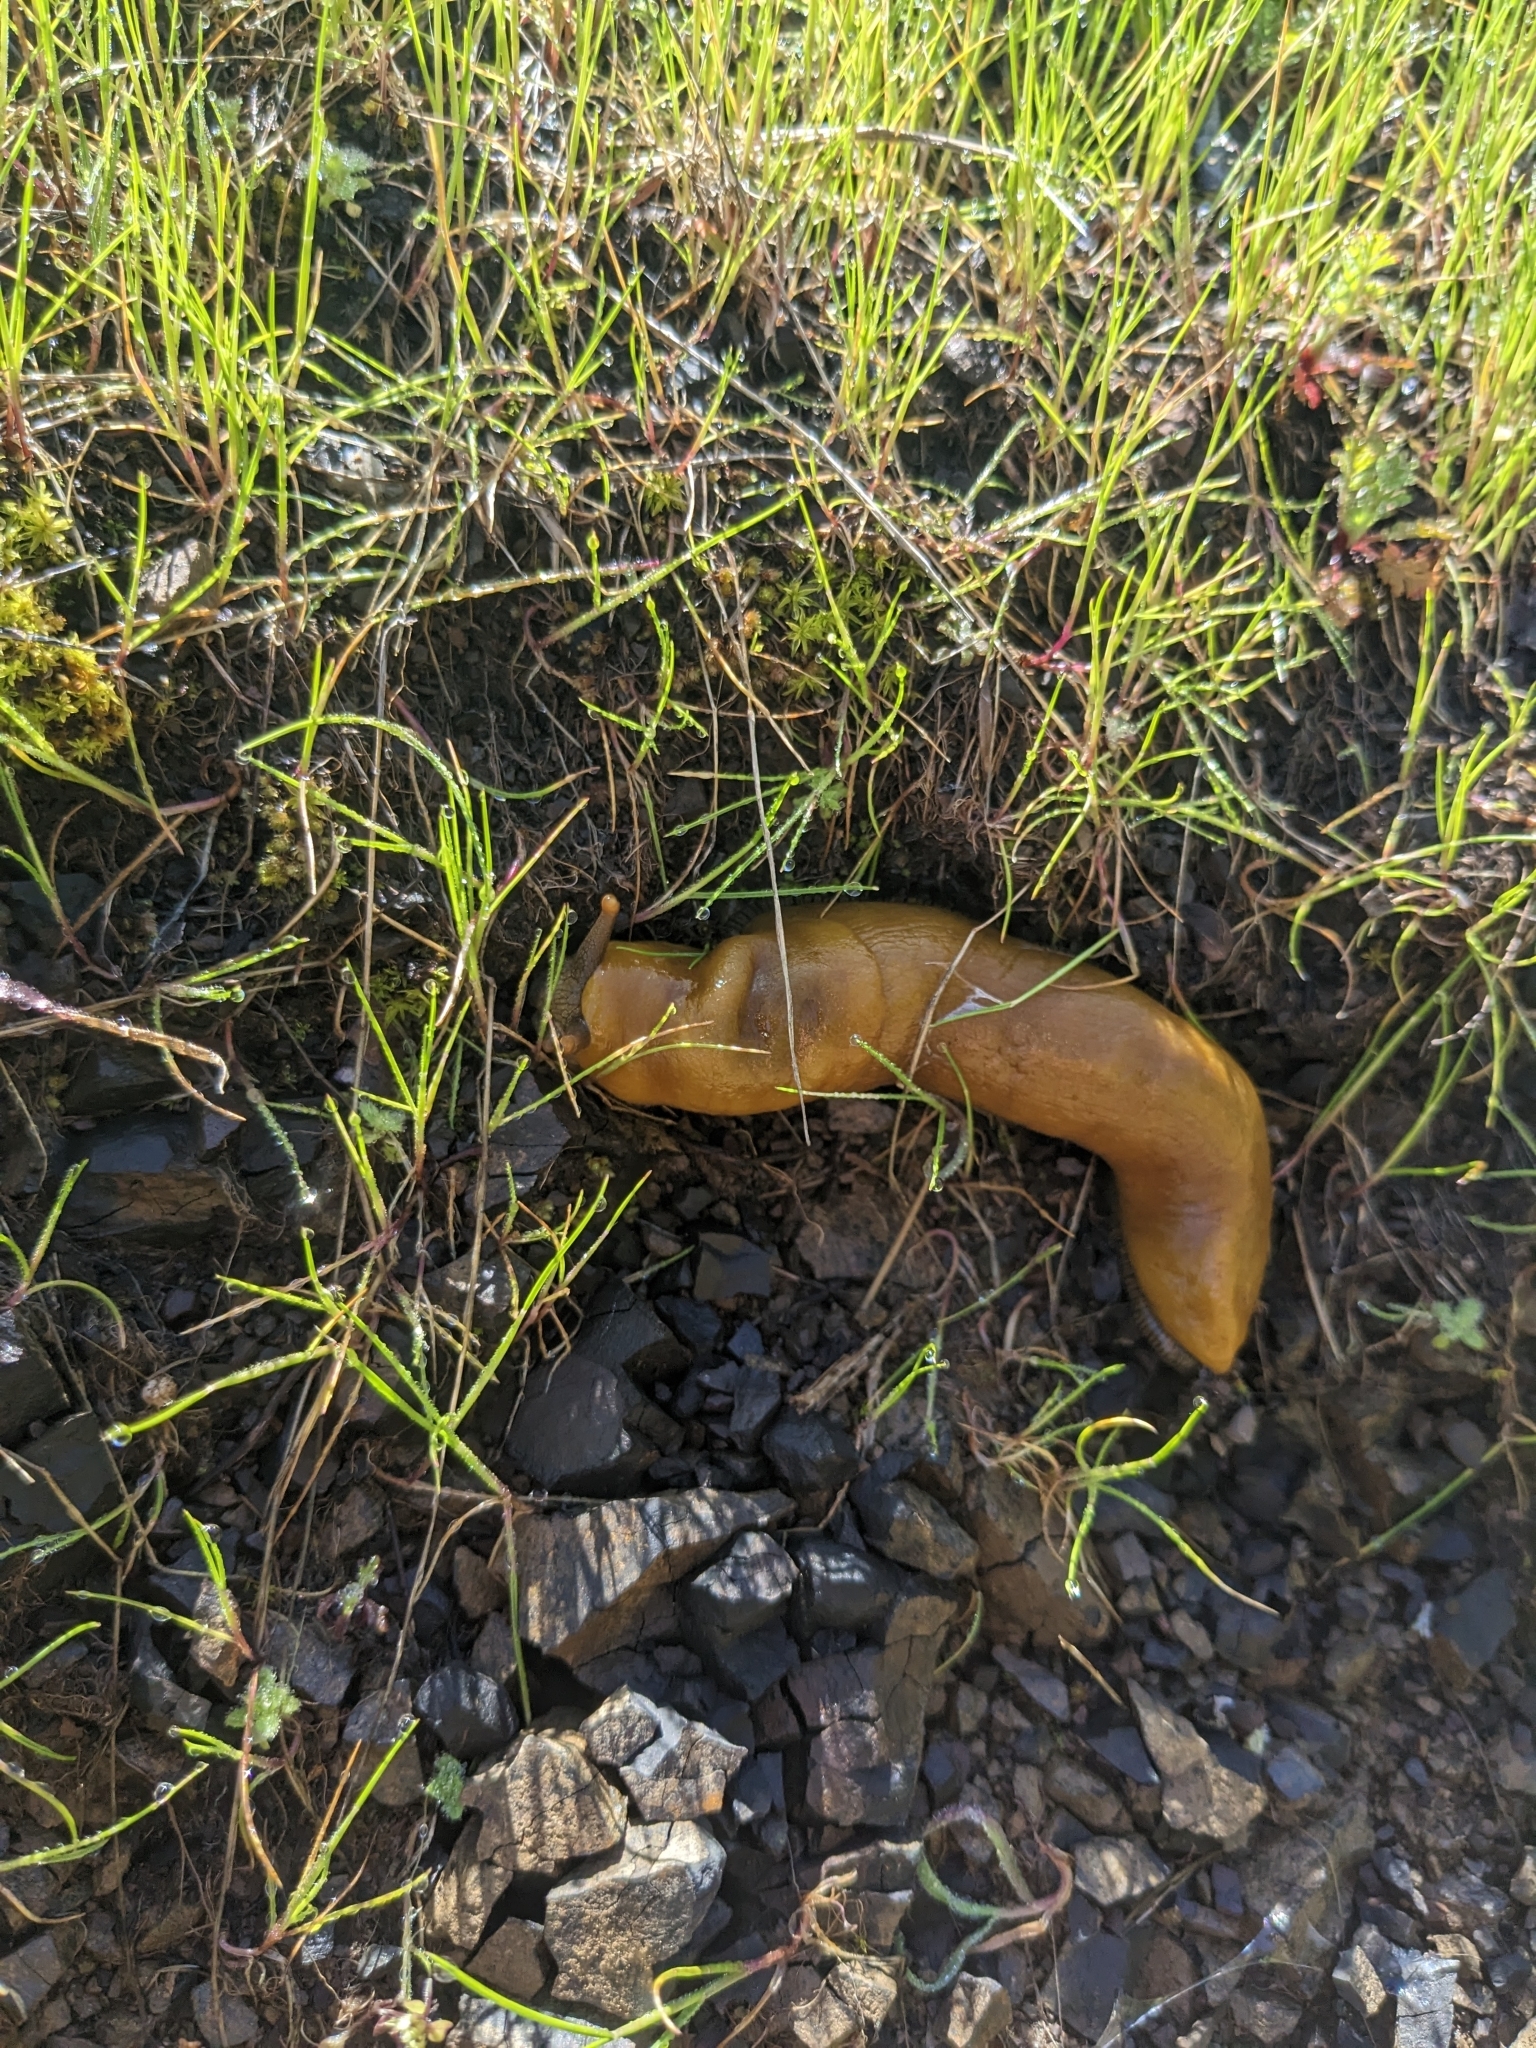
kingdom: Animalia
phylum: Mollusca
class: Gastropoda
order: Stylommatophora
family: Ariolimacidae
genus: Ariolimax
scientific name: Ariolimax stramineus
